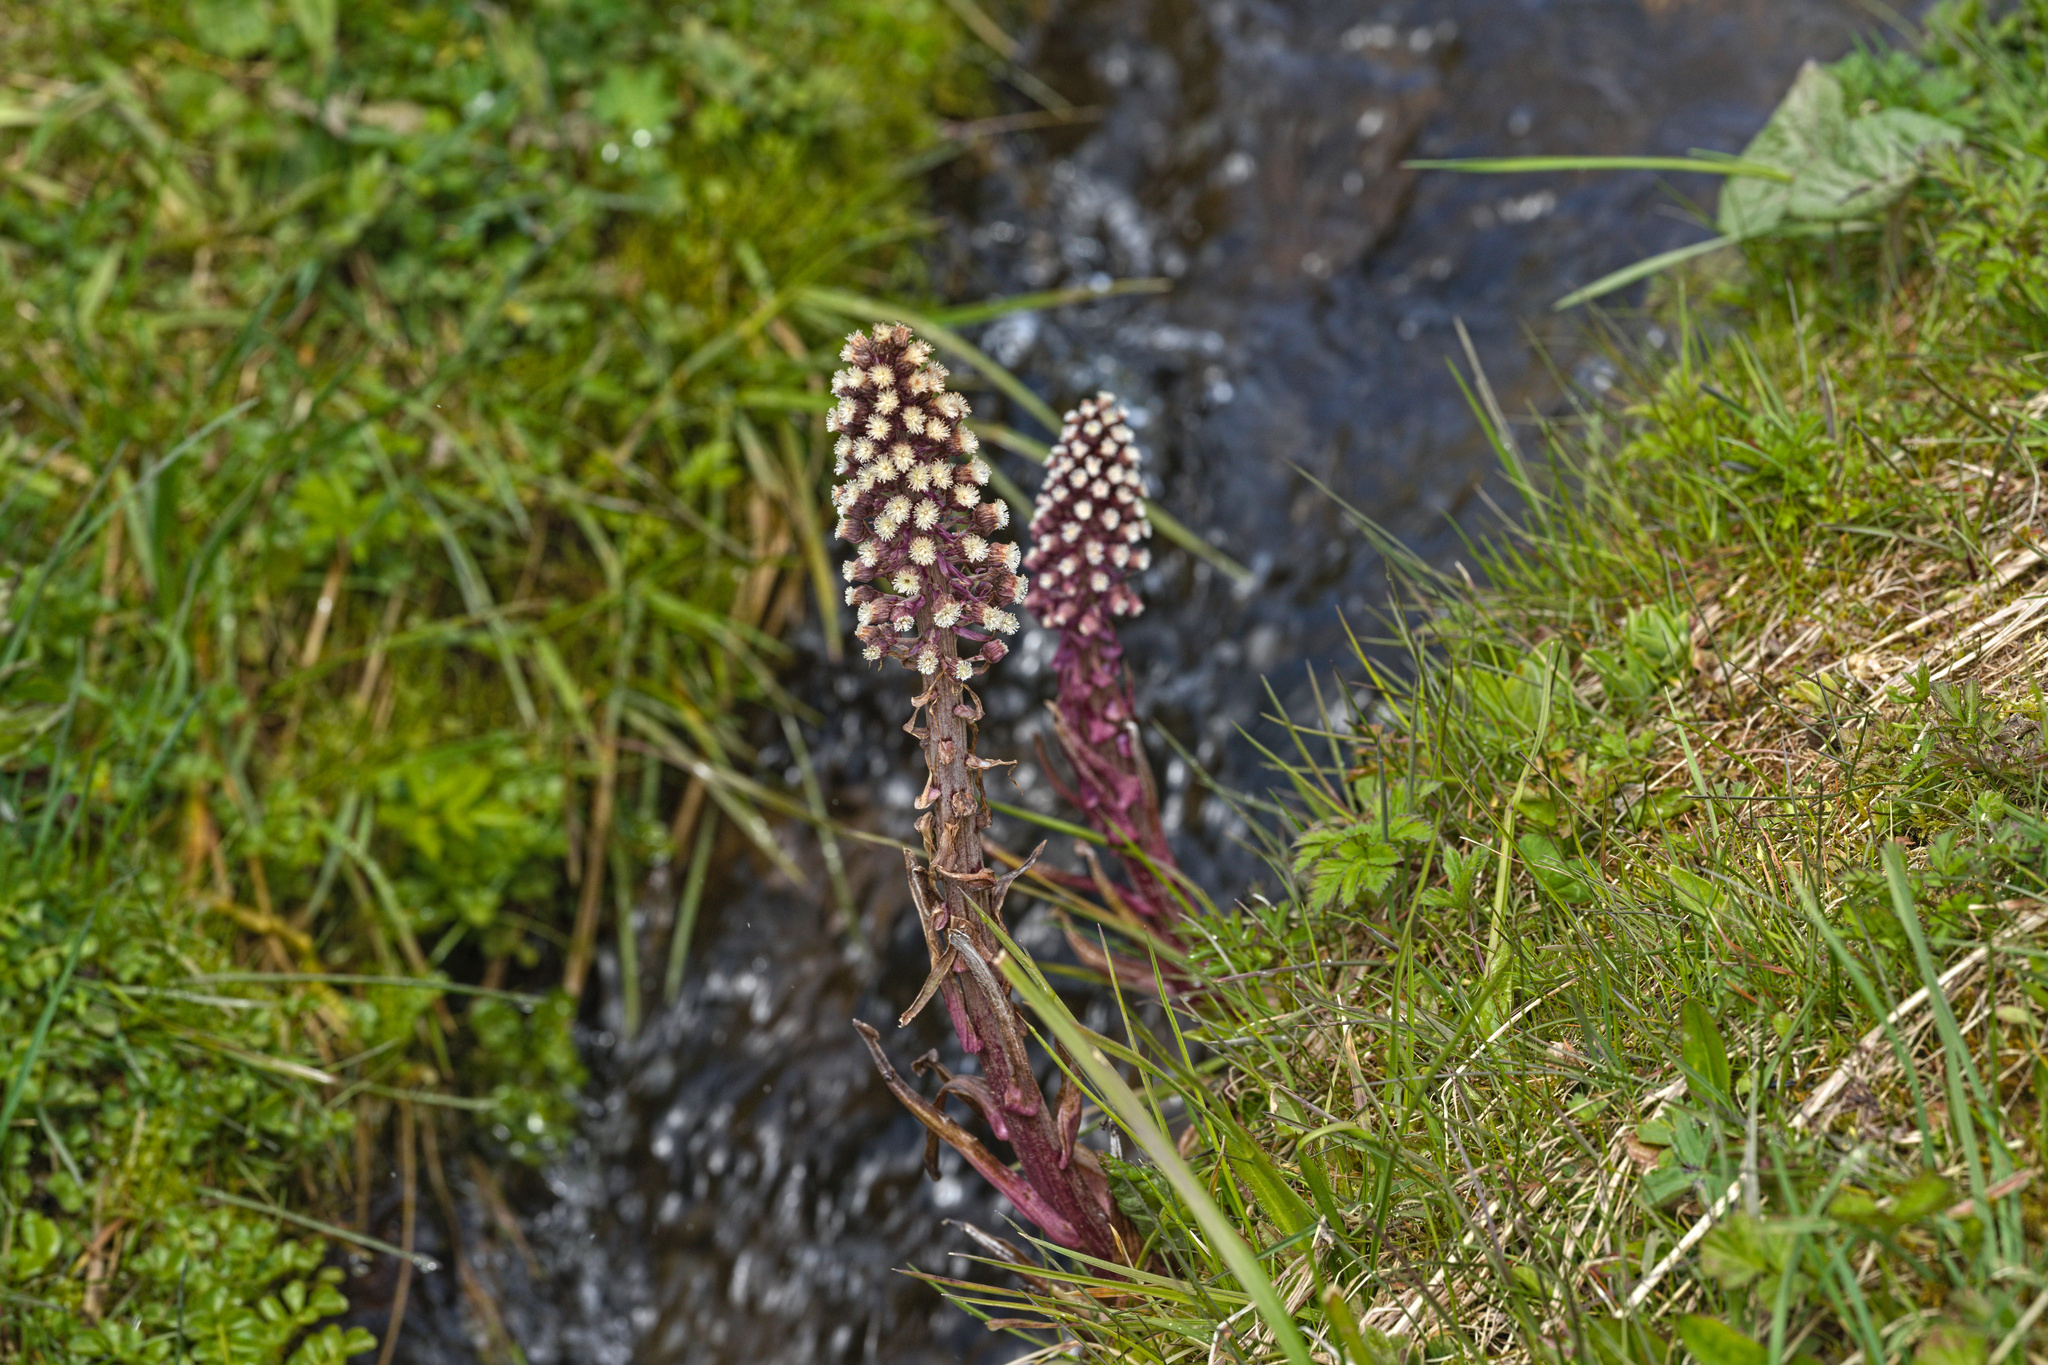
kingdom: Plantae
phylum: Tracheophyta
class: Magnoliopsida
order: Asterales
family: Asteraceae
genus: Petasites
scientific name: Petasites hybridus
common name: Butterbur
